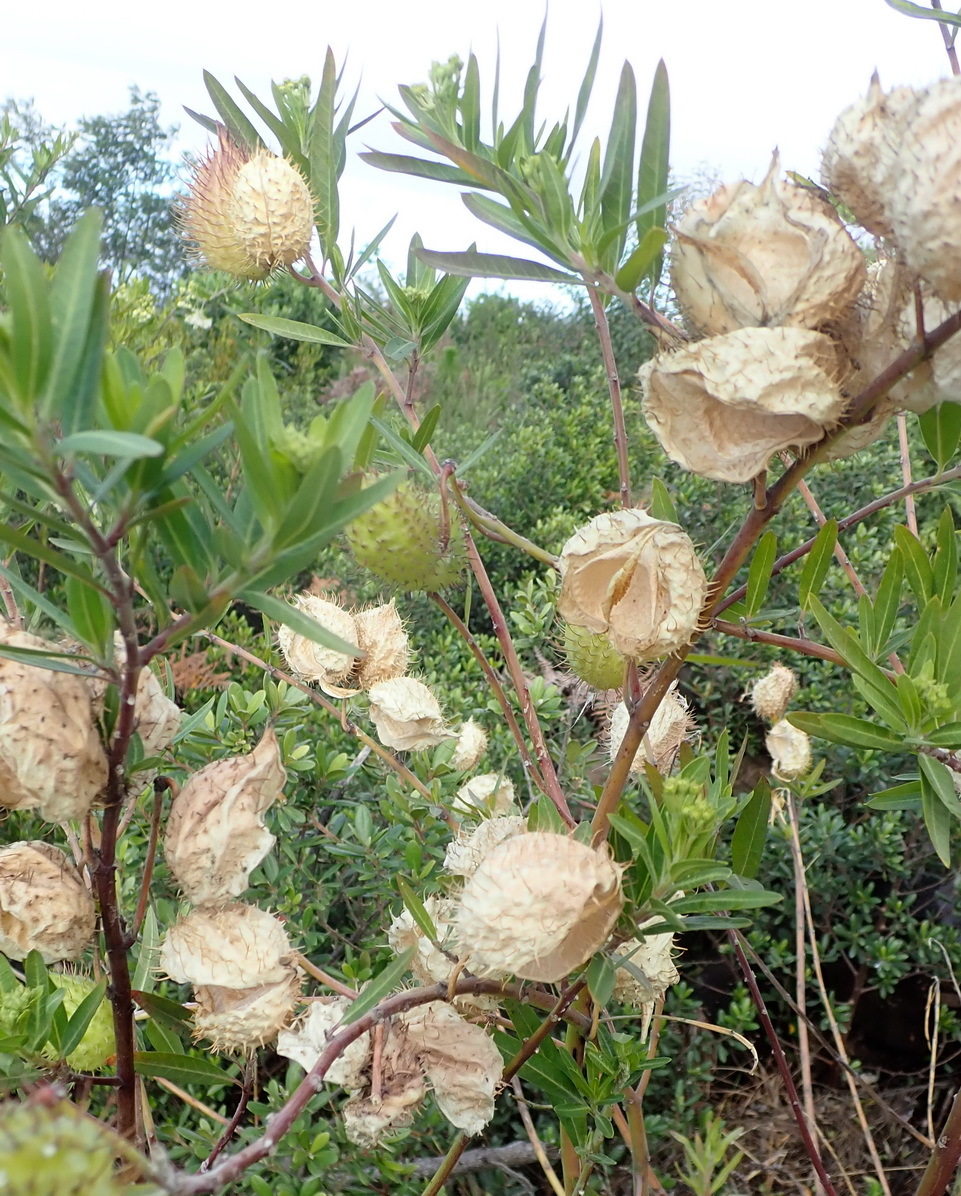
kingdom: Plantae
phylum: Tracheophyta
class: Magnoliopsida
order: Gentianales
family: Apocynaceae
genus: Gomphocarpus
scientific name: Gomphocarpus physocarpus
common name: Balloon cotton bush
